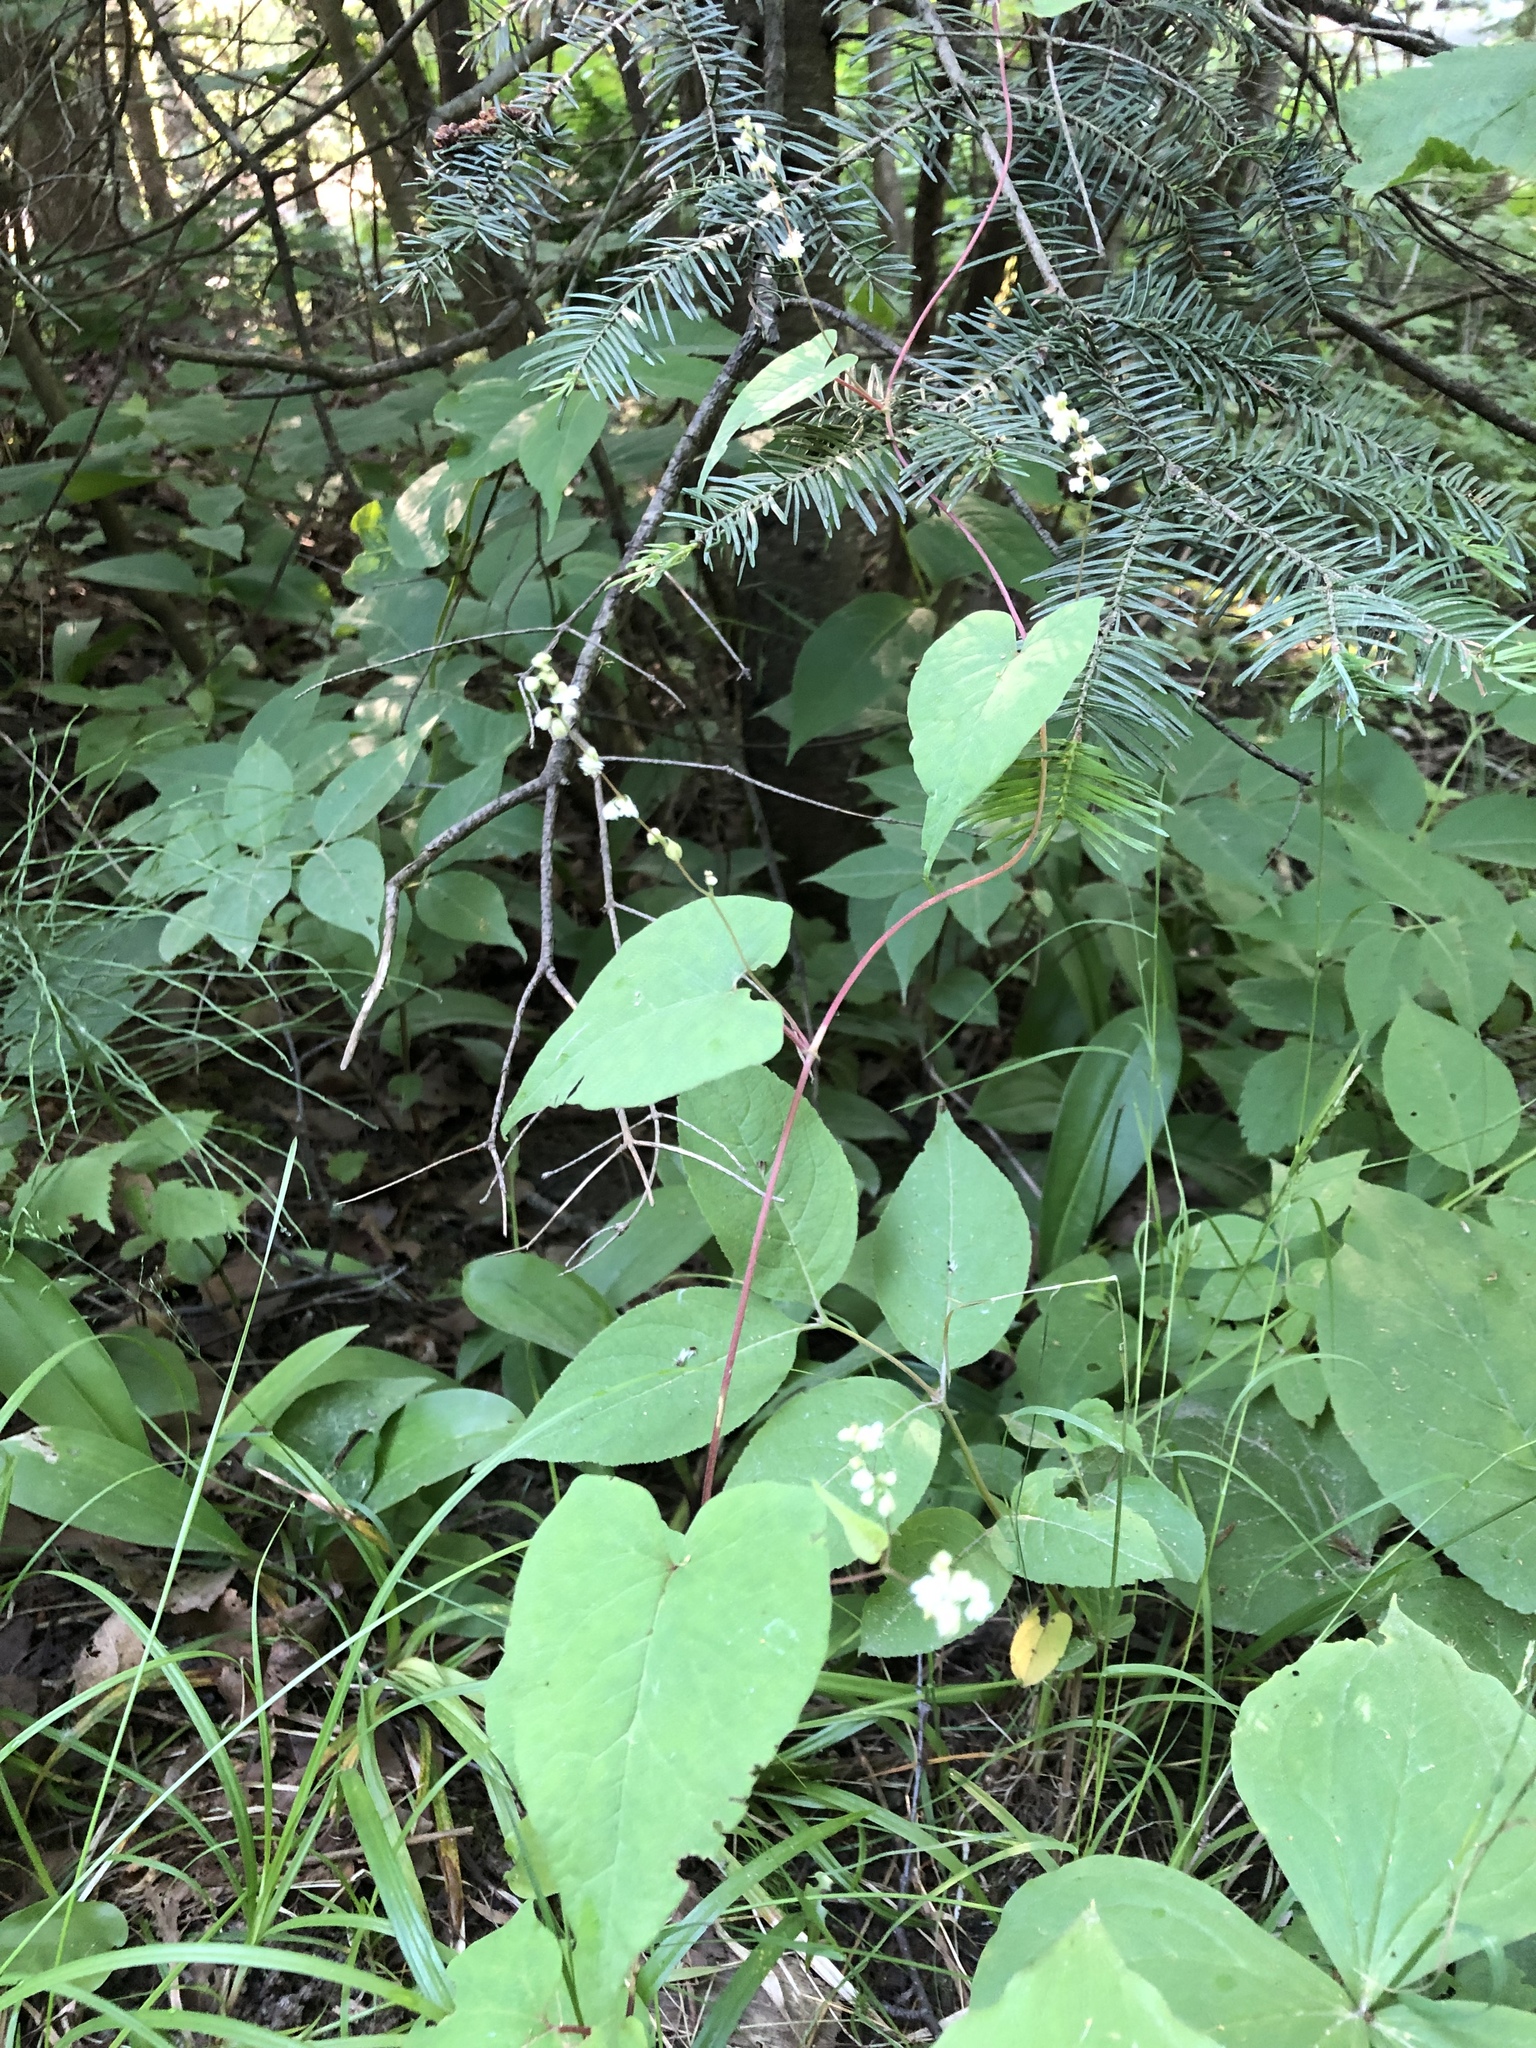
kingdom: Plantae
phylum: Tracheophyta
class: Magnoliopsida
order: Caryophyllales
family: Polygonaceae
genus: Parogonum
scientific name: Parogonum ciliinode
